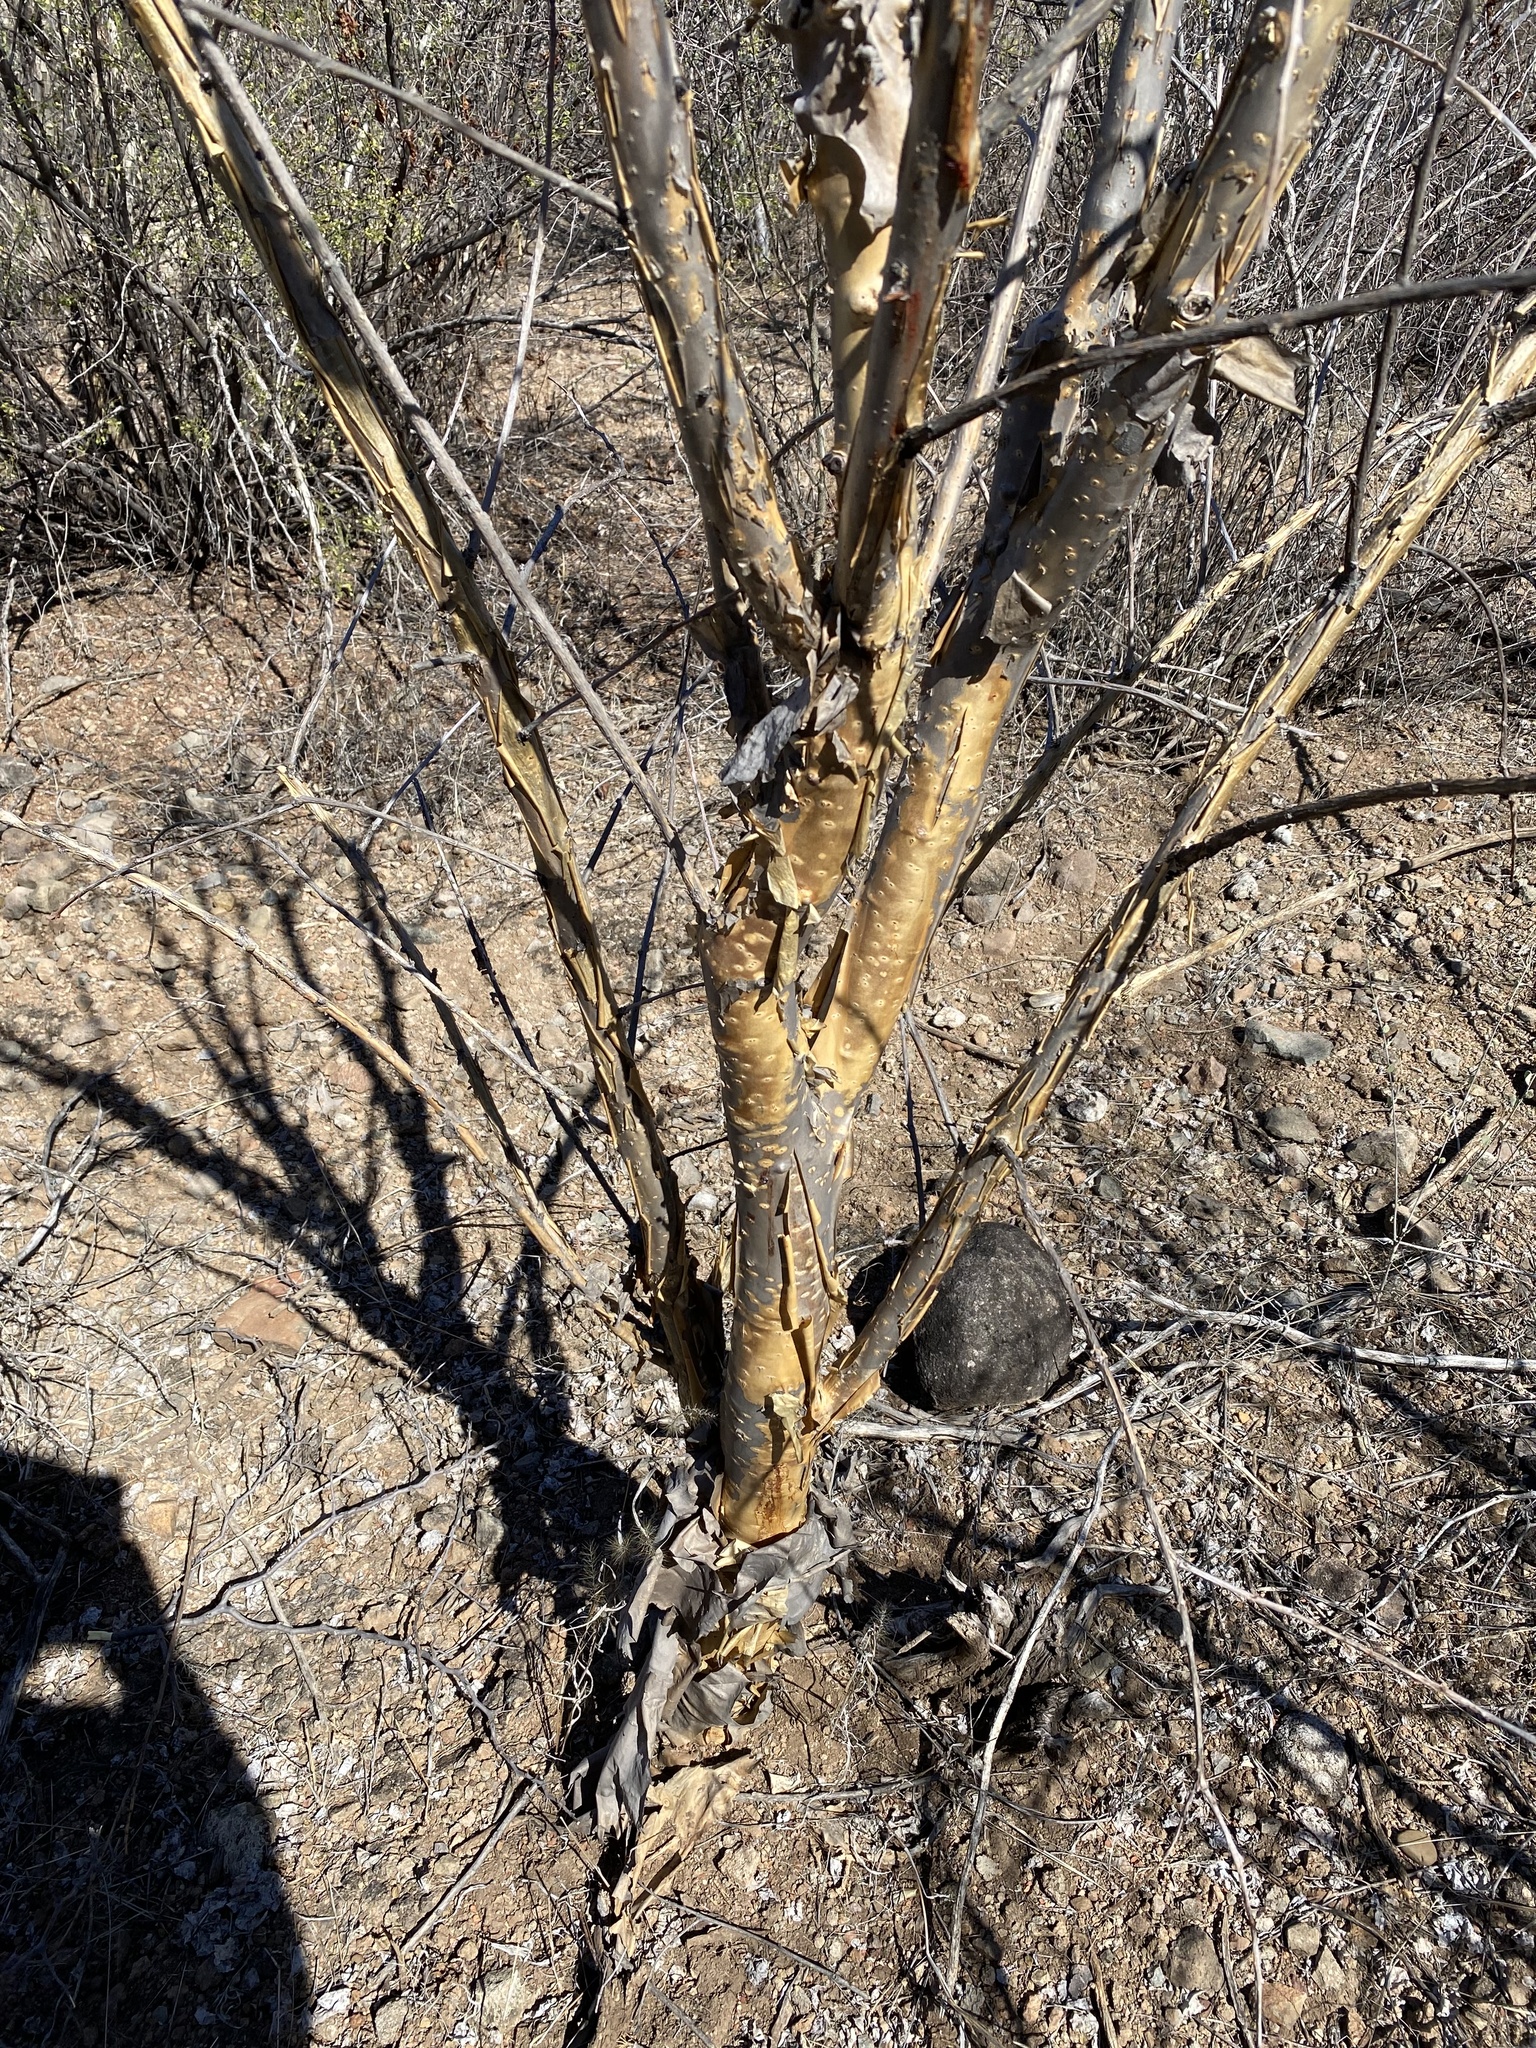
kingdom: Plantae
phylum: Tracheophyta
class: Magnoliopsida
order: Malpighiales
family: Euphorbiaceae
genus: Jatropha
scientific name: Jatropha cordata
